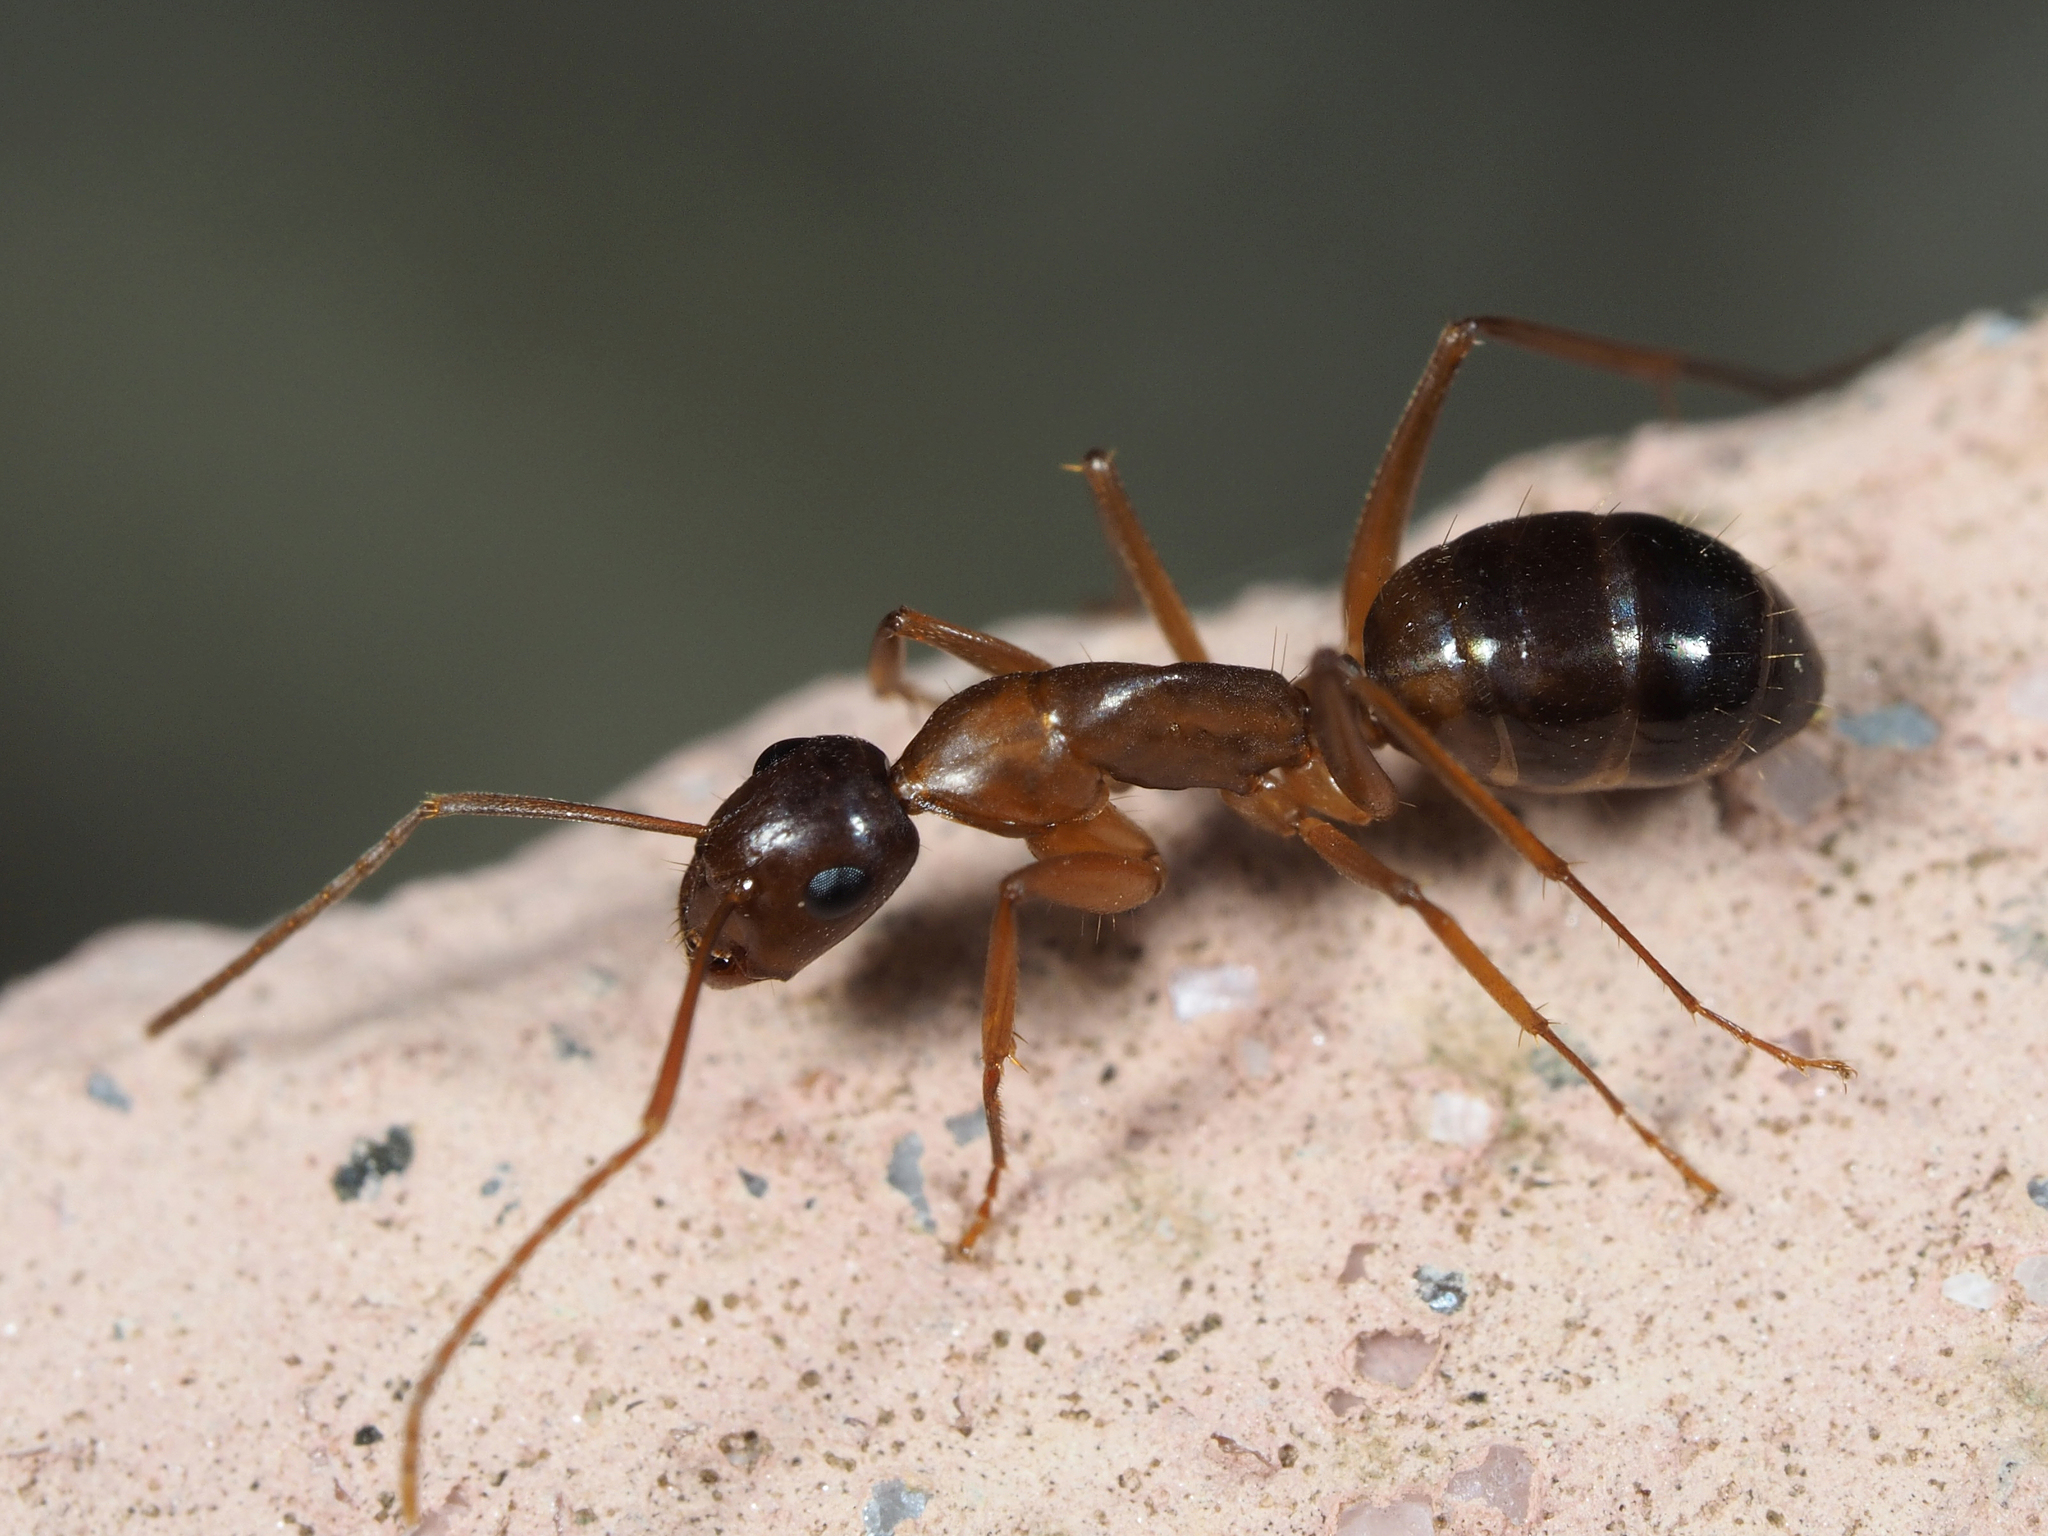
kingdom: Animalia
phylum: Arthropoda
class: Insecta
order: Hymenoptera
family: Formicidae
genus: Camponotus
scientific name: Camponotus nylanderi
